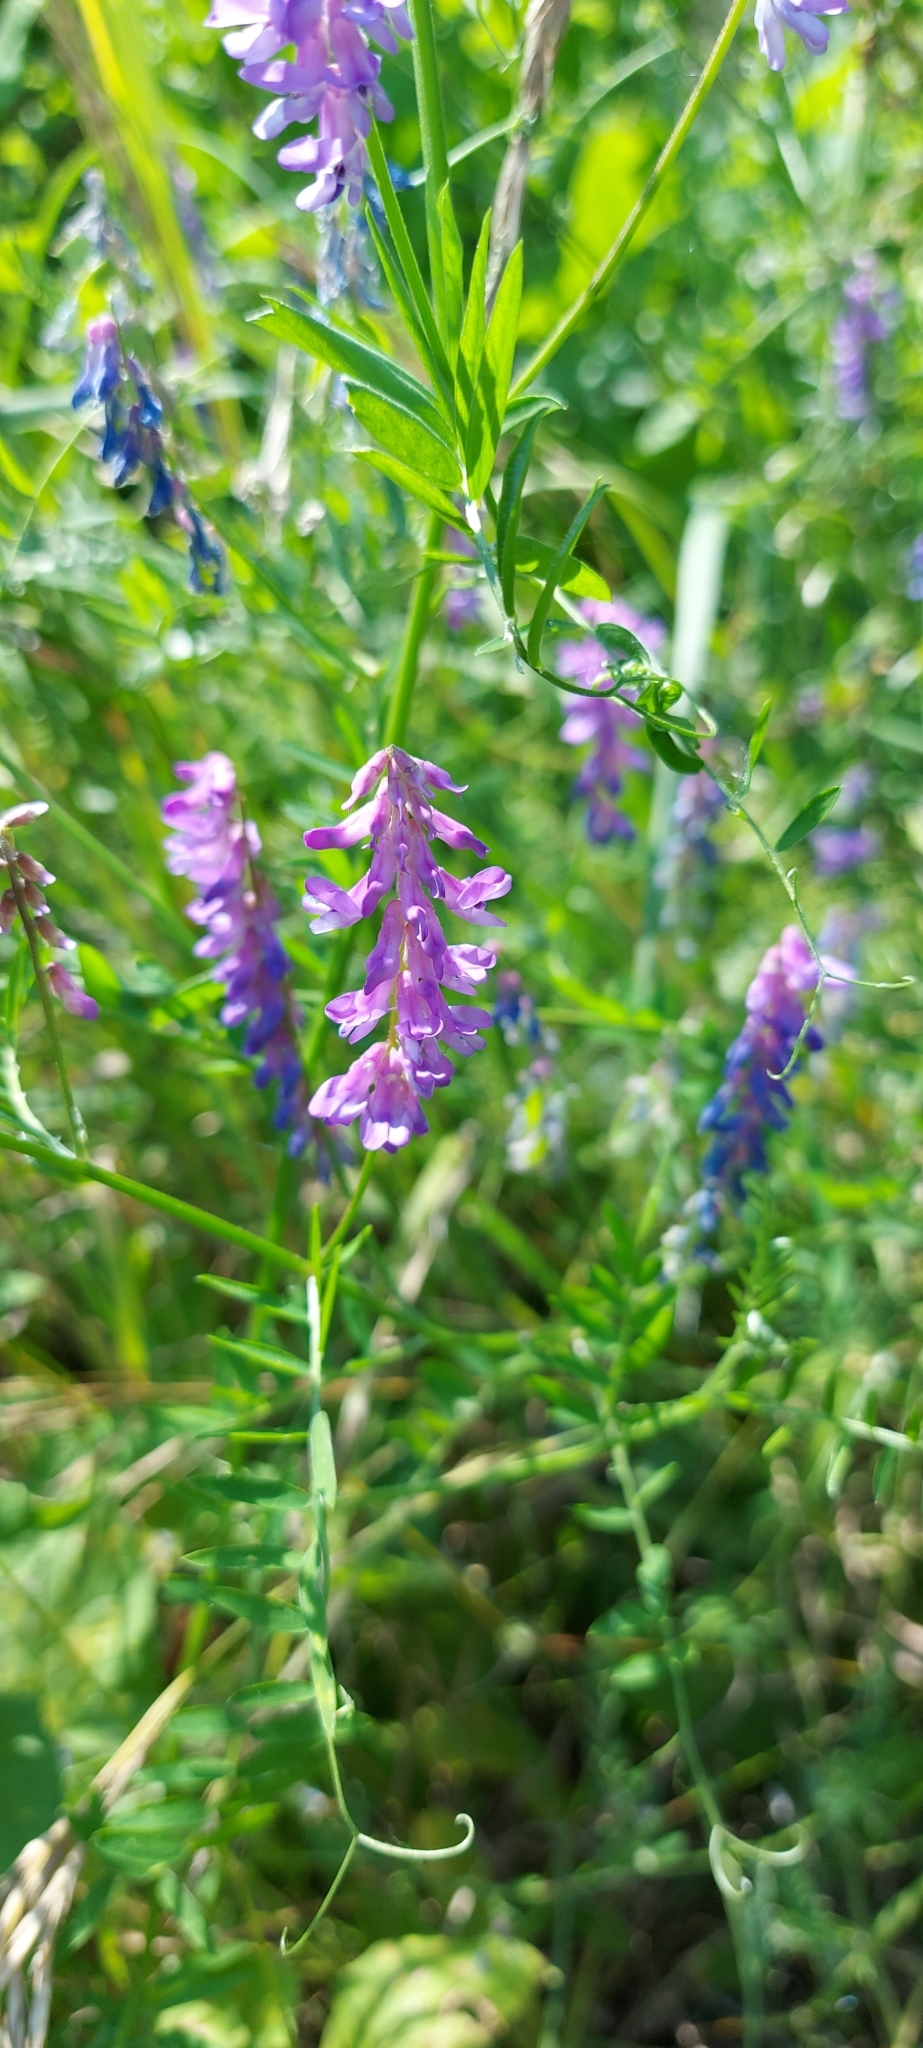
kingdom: Plantae
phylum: Tracheophyta
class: Magnoliopsida
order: Fabales
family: Fabaceae
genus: Vicia
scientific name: Vicia cracca
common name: Bird vetch
